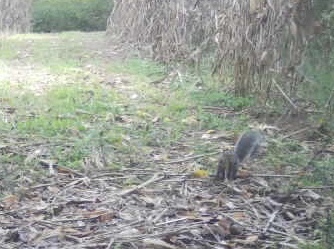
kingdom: Animalia
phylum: Chordata
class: Mammalia
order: Rodentia
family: Sciuridae
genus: Sciurus
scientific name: Sciurus carolinensis
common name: Eastern gray squirrel
